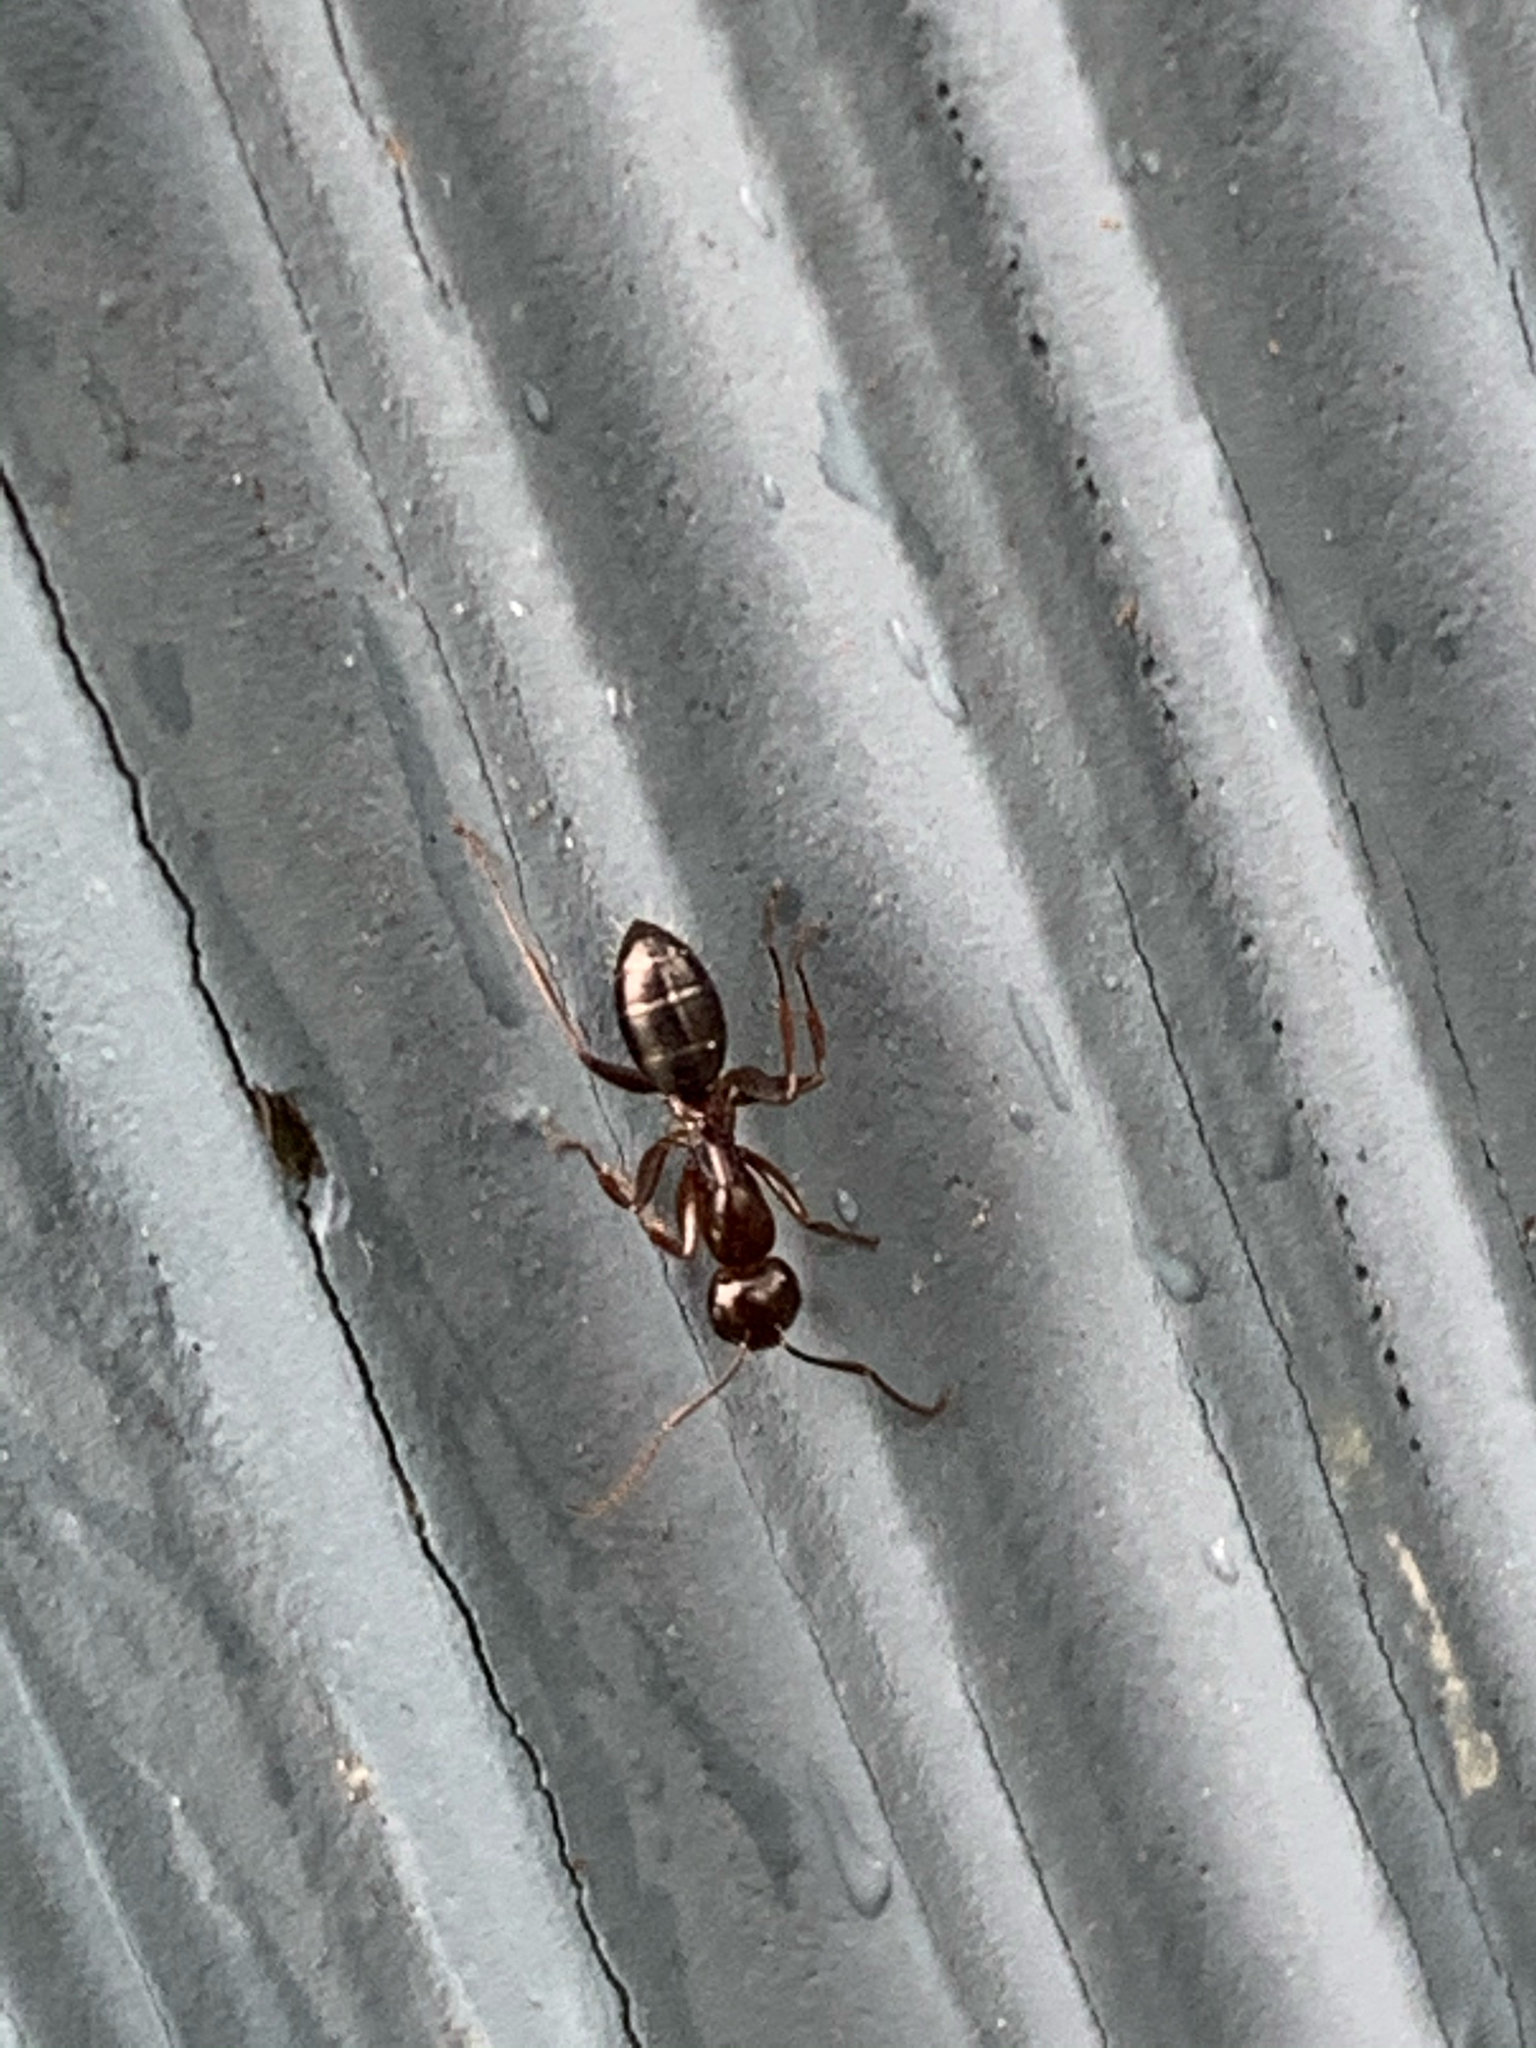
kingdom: Animalia
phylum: Arthropoda
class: Insecta
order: Hymenoptera
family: Formicidae
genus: Camponotus
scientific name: Camponotus nearcticus
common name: Smaller carpenter ant
